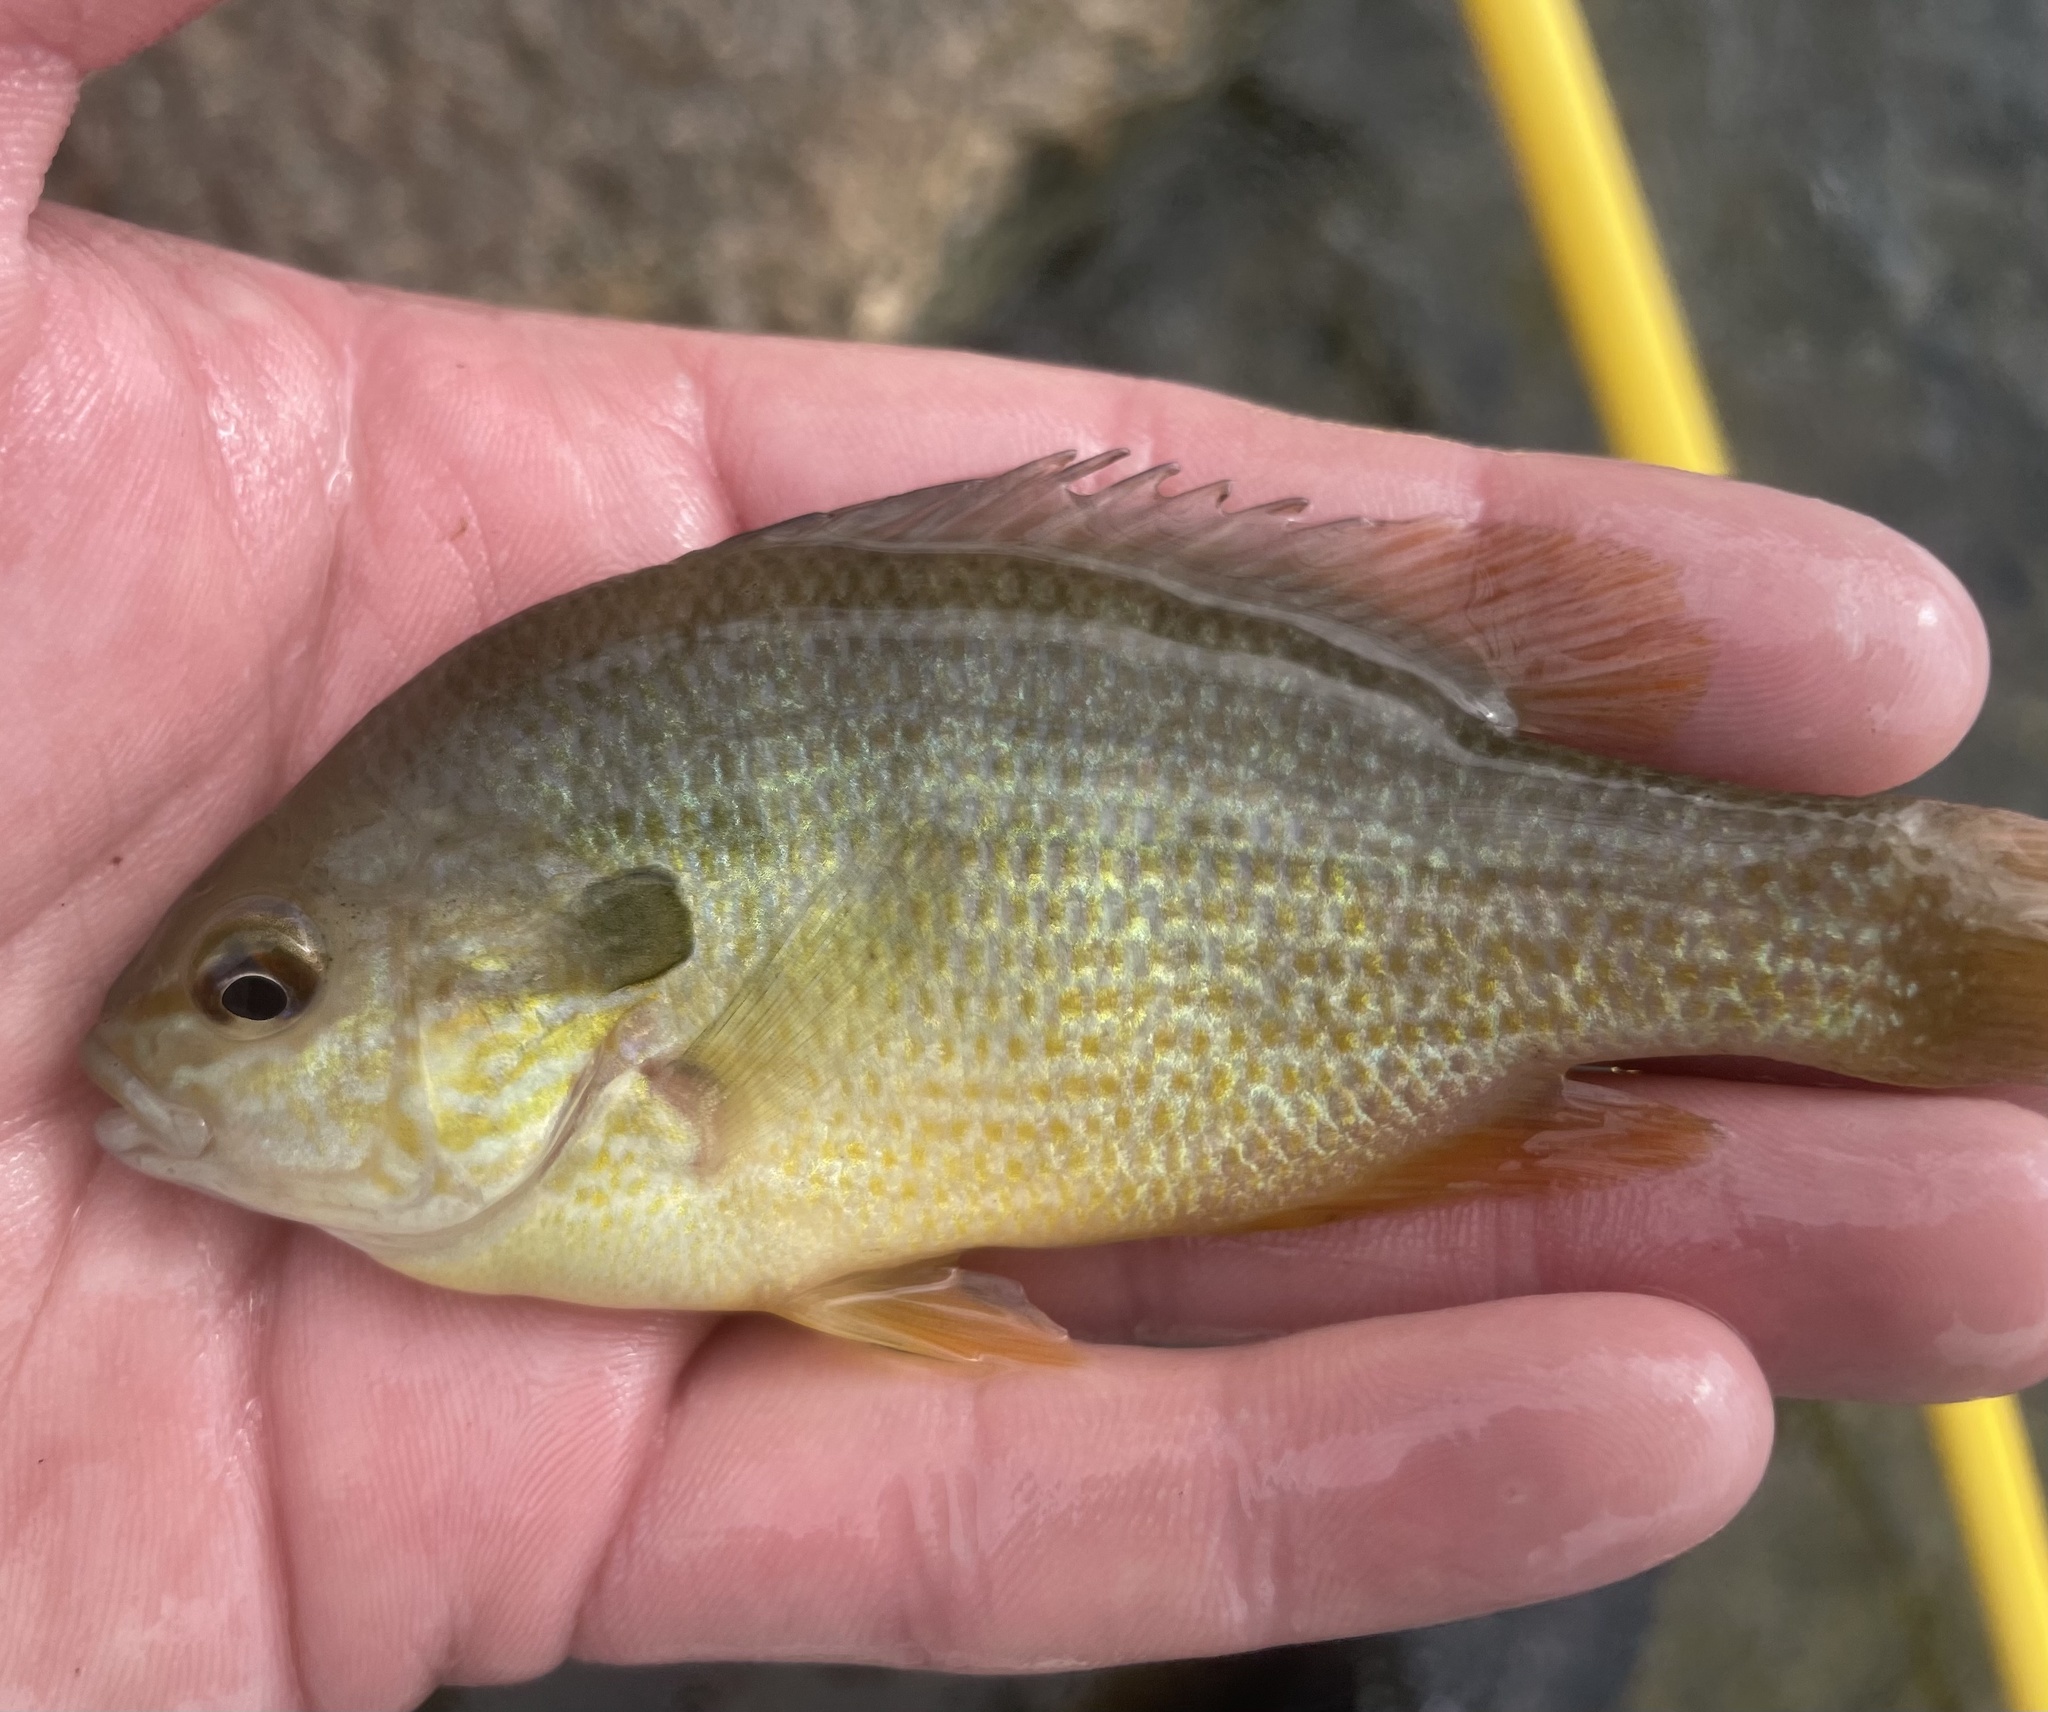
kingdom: Animalia
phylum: Chordata
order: Perciformes
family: Centrarchidae
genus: Lepomis
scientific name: Lepomis megalotis
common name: Longear sunfish
